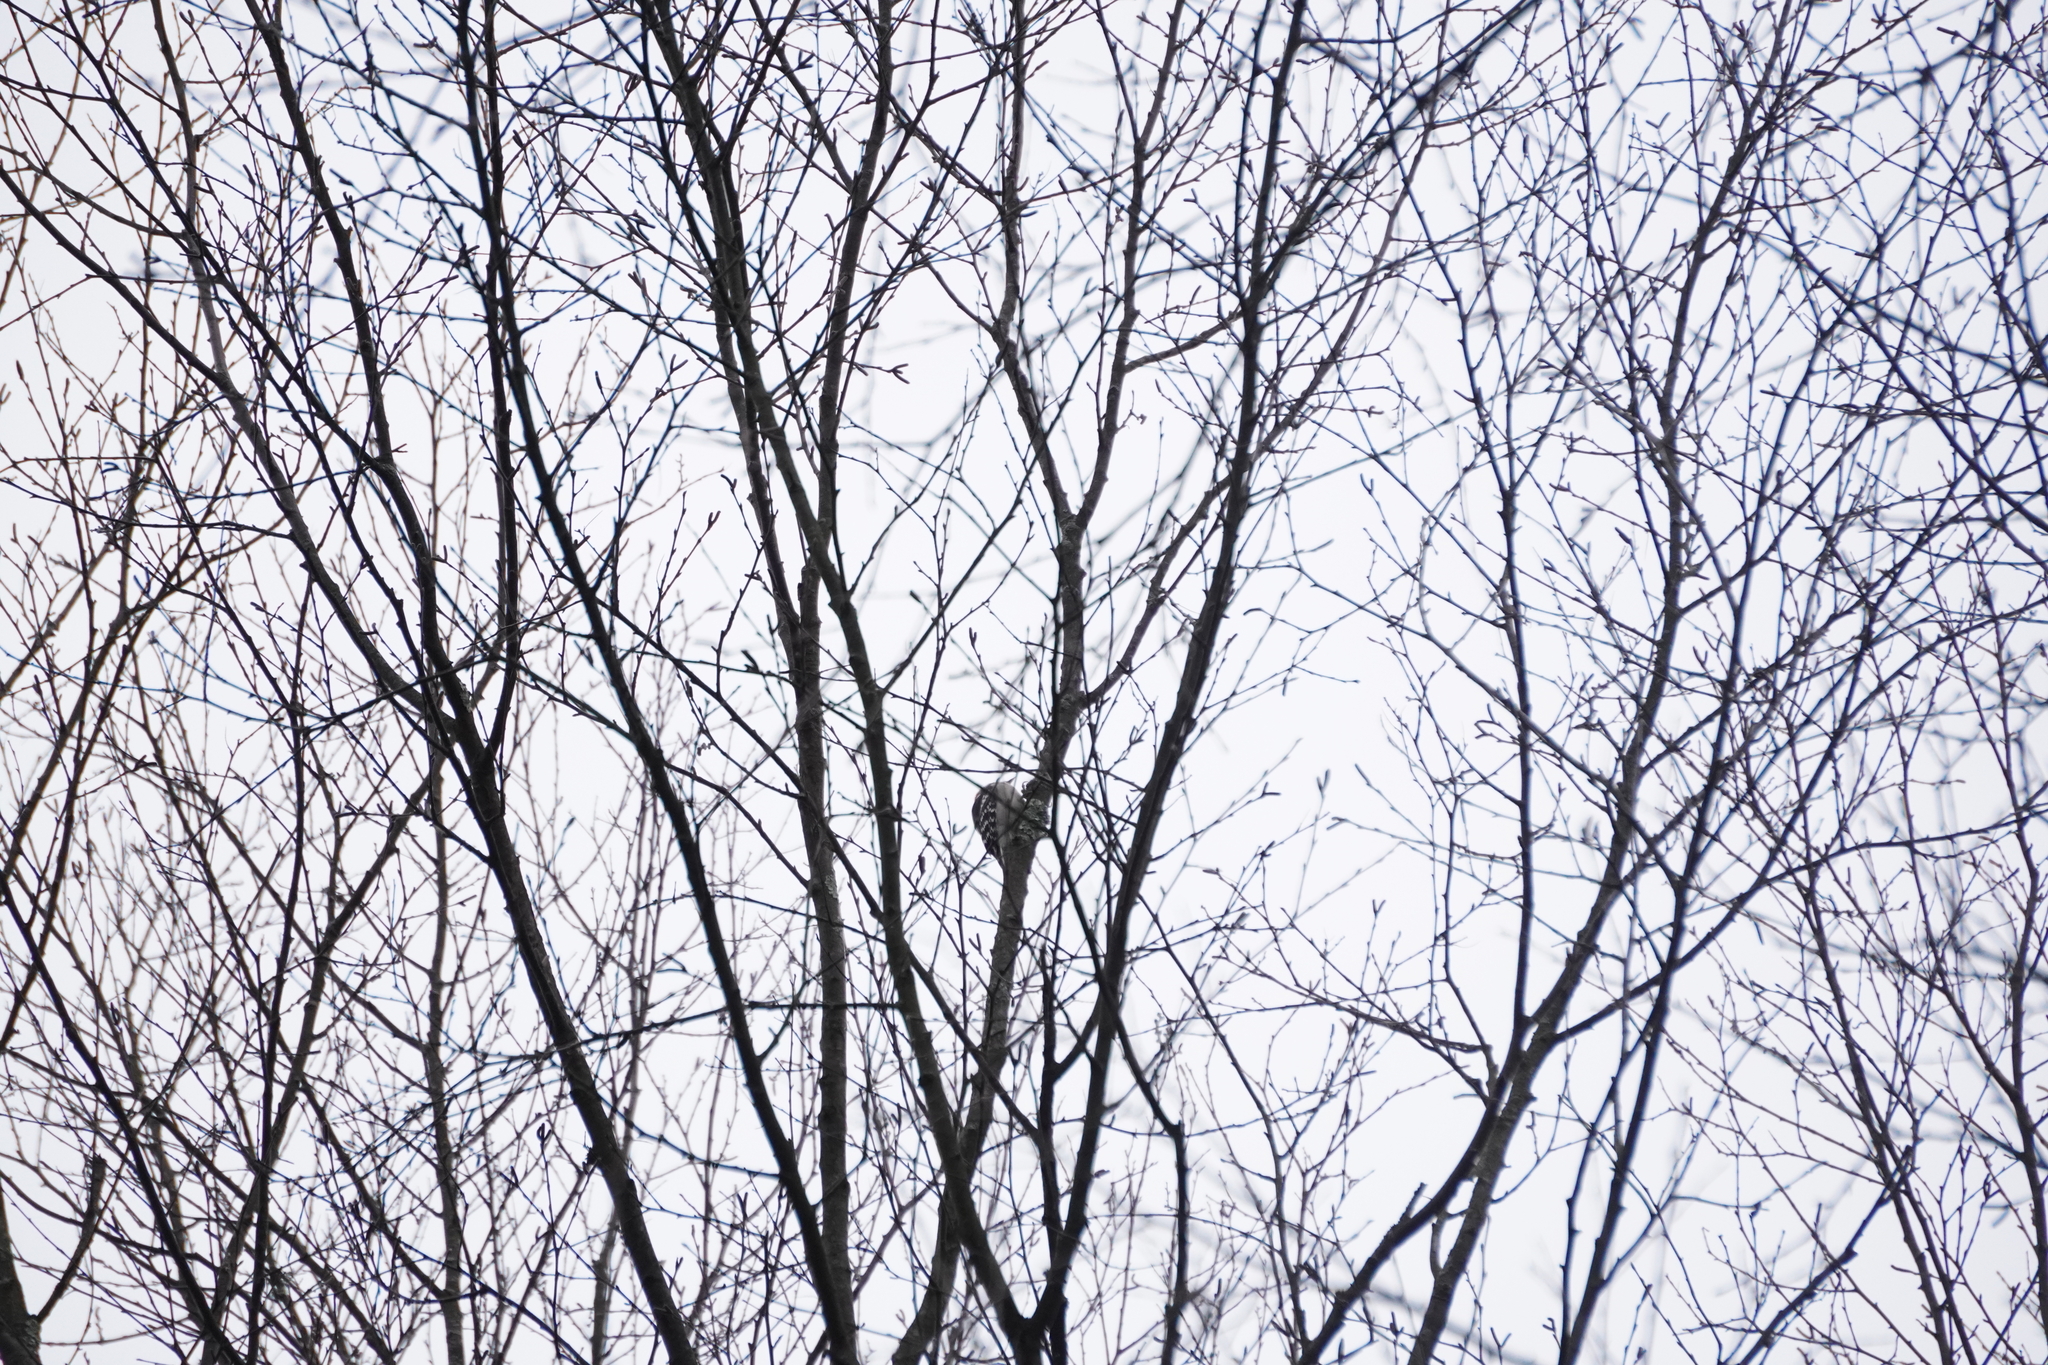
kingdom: Animalia
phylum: Chordata
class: Aves
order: Piciformes
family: Picidae
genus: Dryobates
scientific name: Dryobates pubescens
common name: Downy woodpecker
